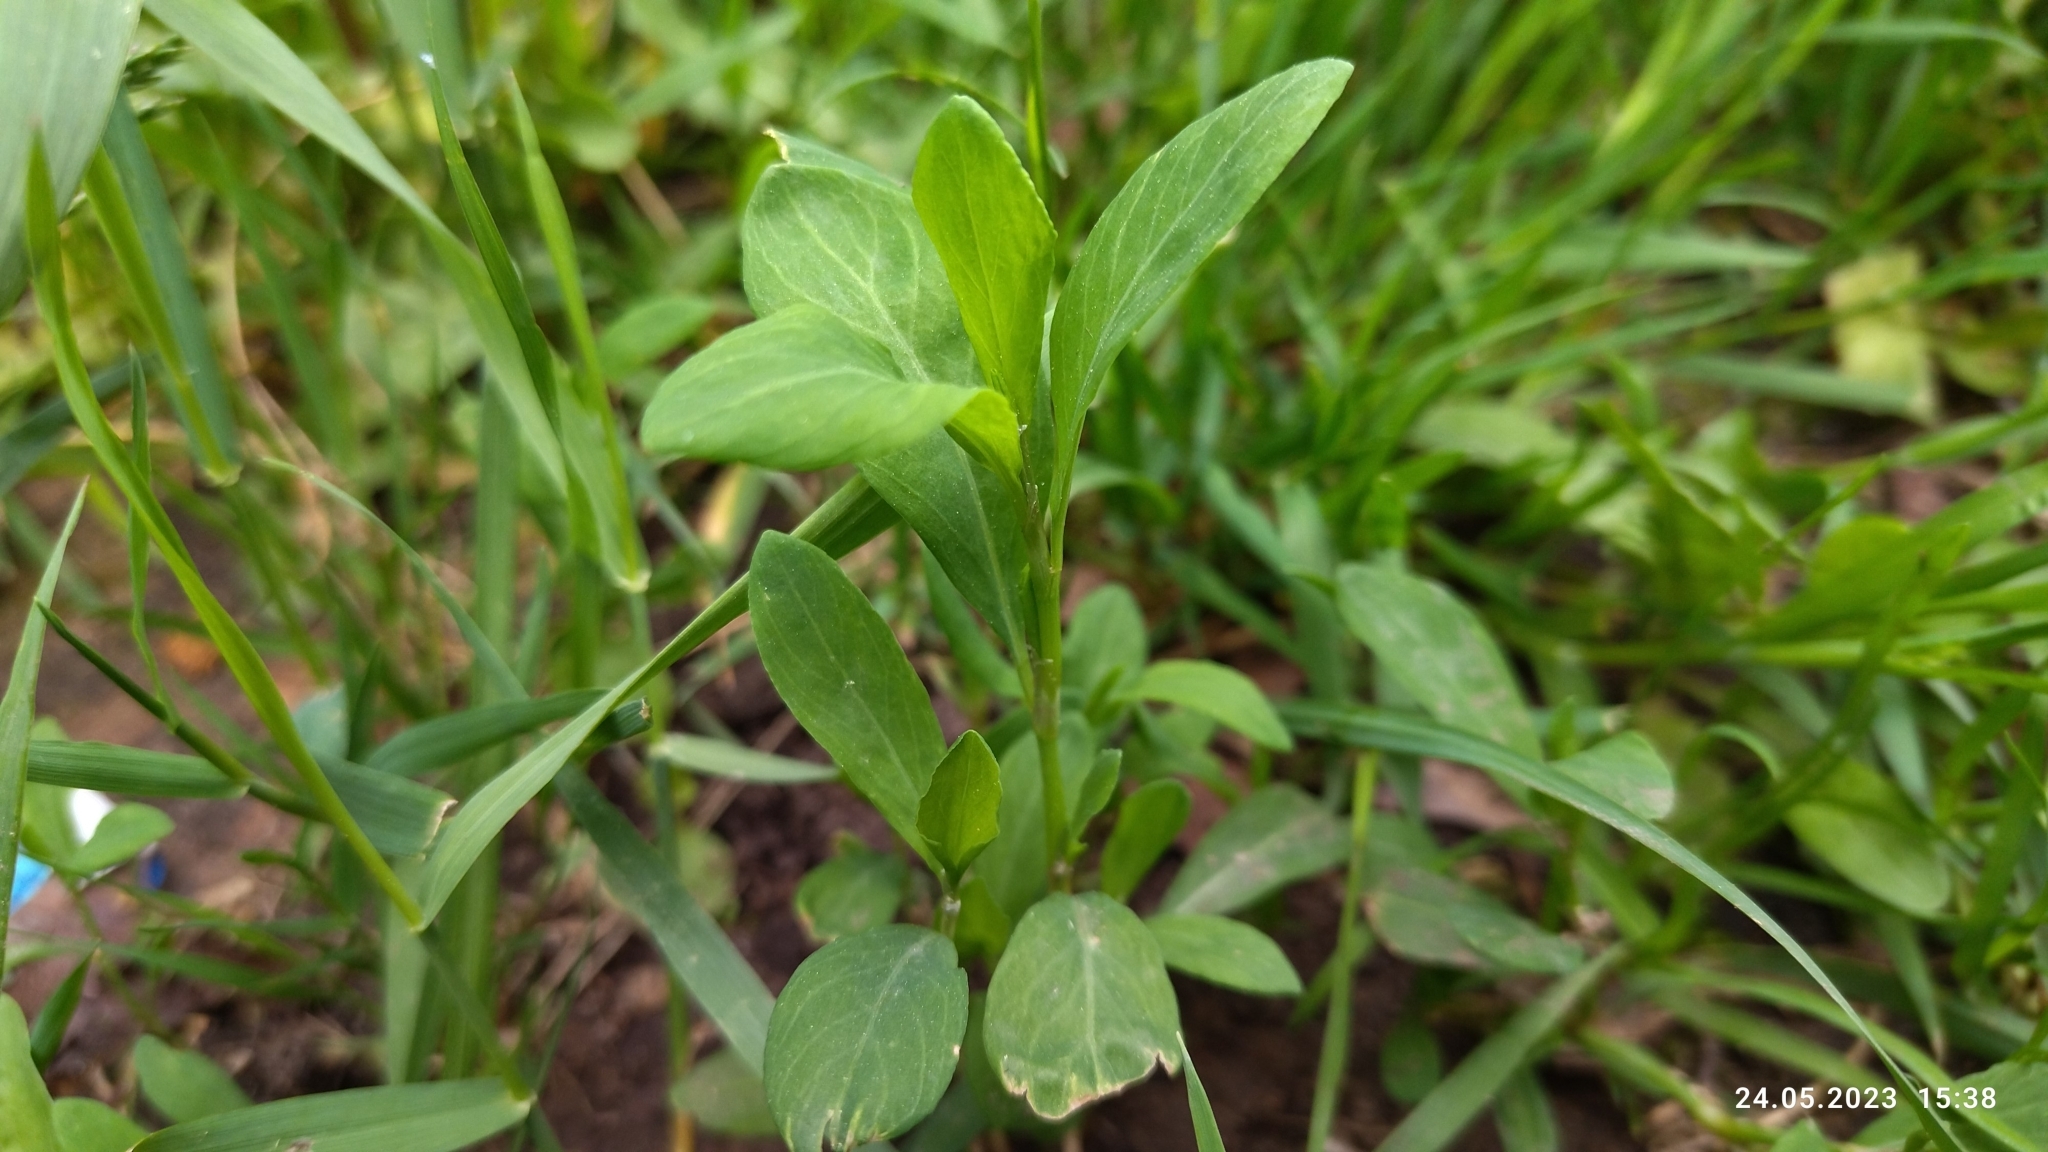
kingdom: Plantae
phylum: Tracheophyta
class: Magnoliopsida
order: Caryophyllales
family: Polygonaceae
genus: Polygonum
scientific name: Polygonum
